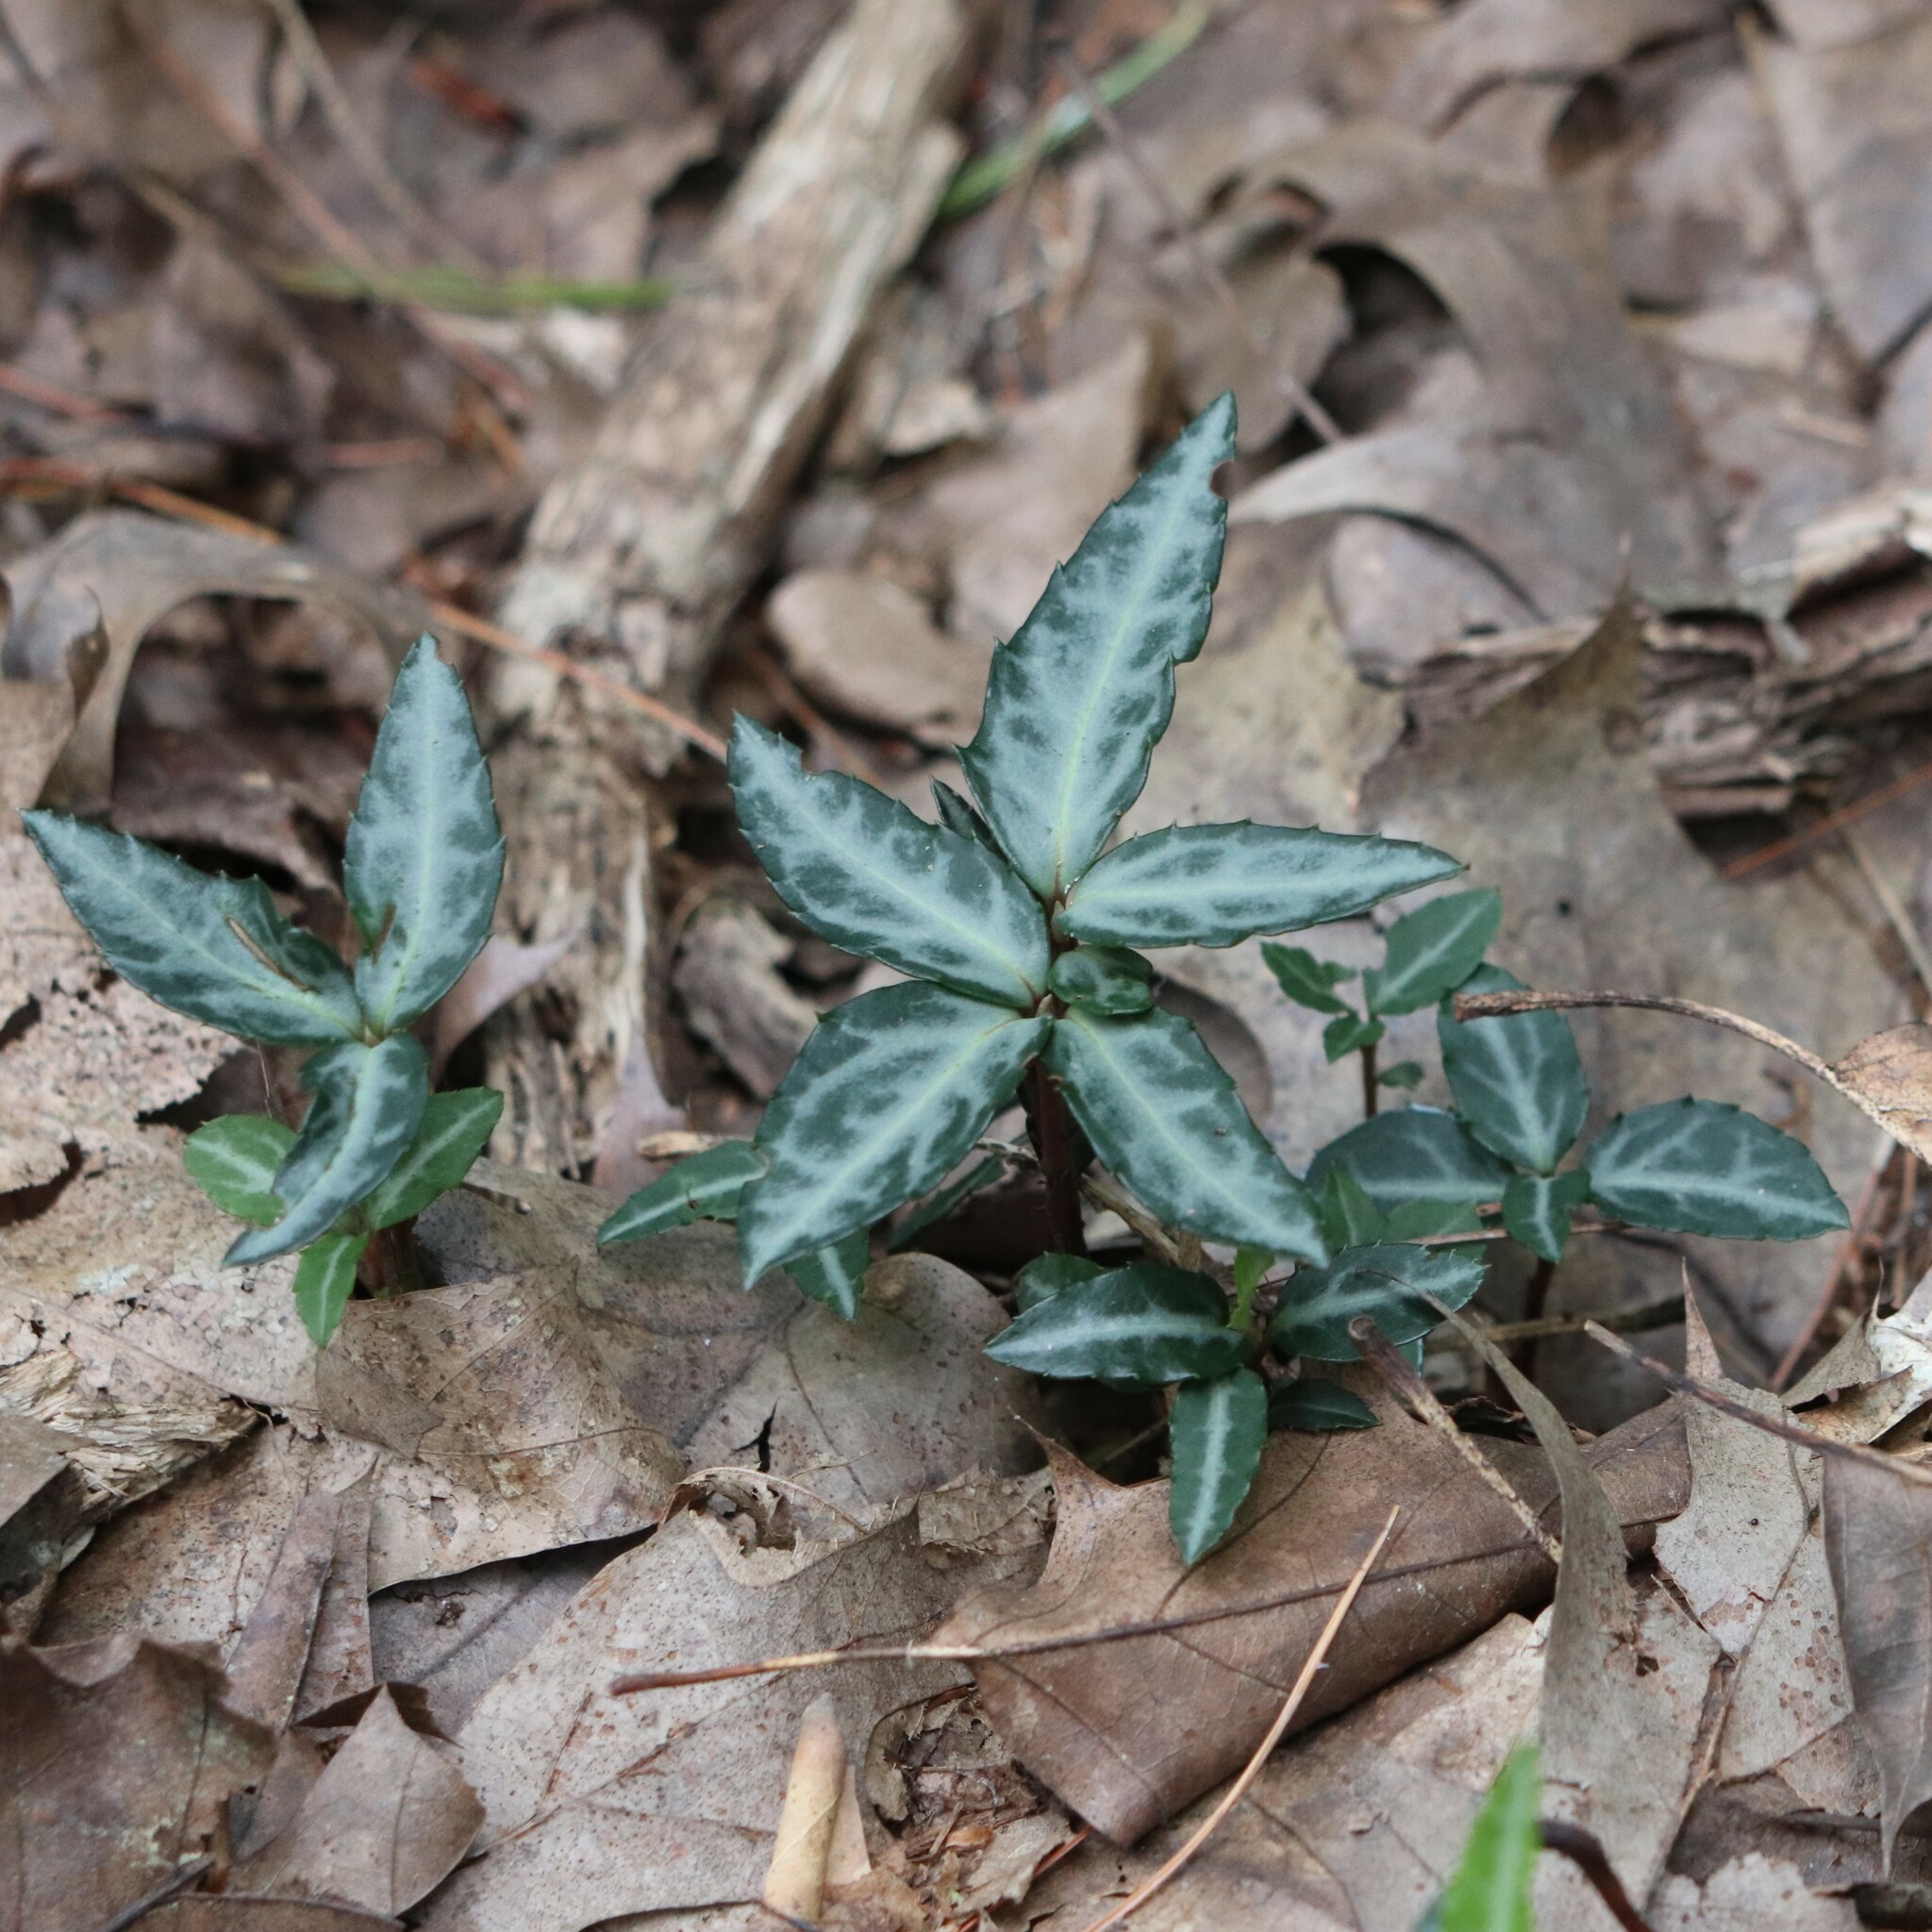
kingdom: Plantae
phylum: Tracheophyta
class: Magnoliopsida
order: Ericales
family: Ericaceae
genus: Chimaphila
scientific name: Chimaphila maculata
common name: Spotted pipsissewa
